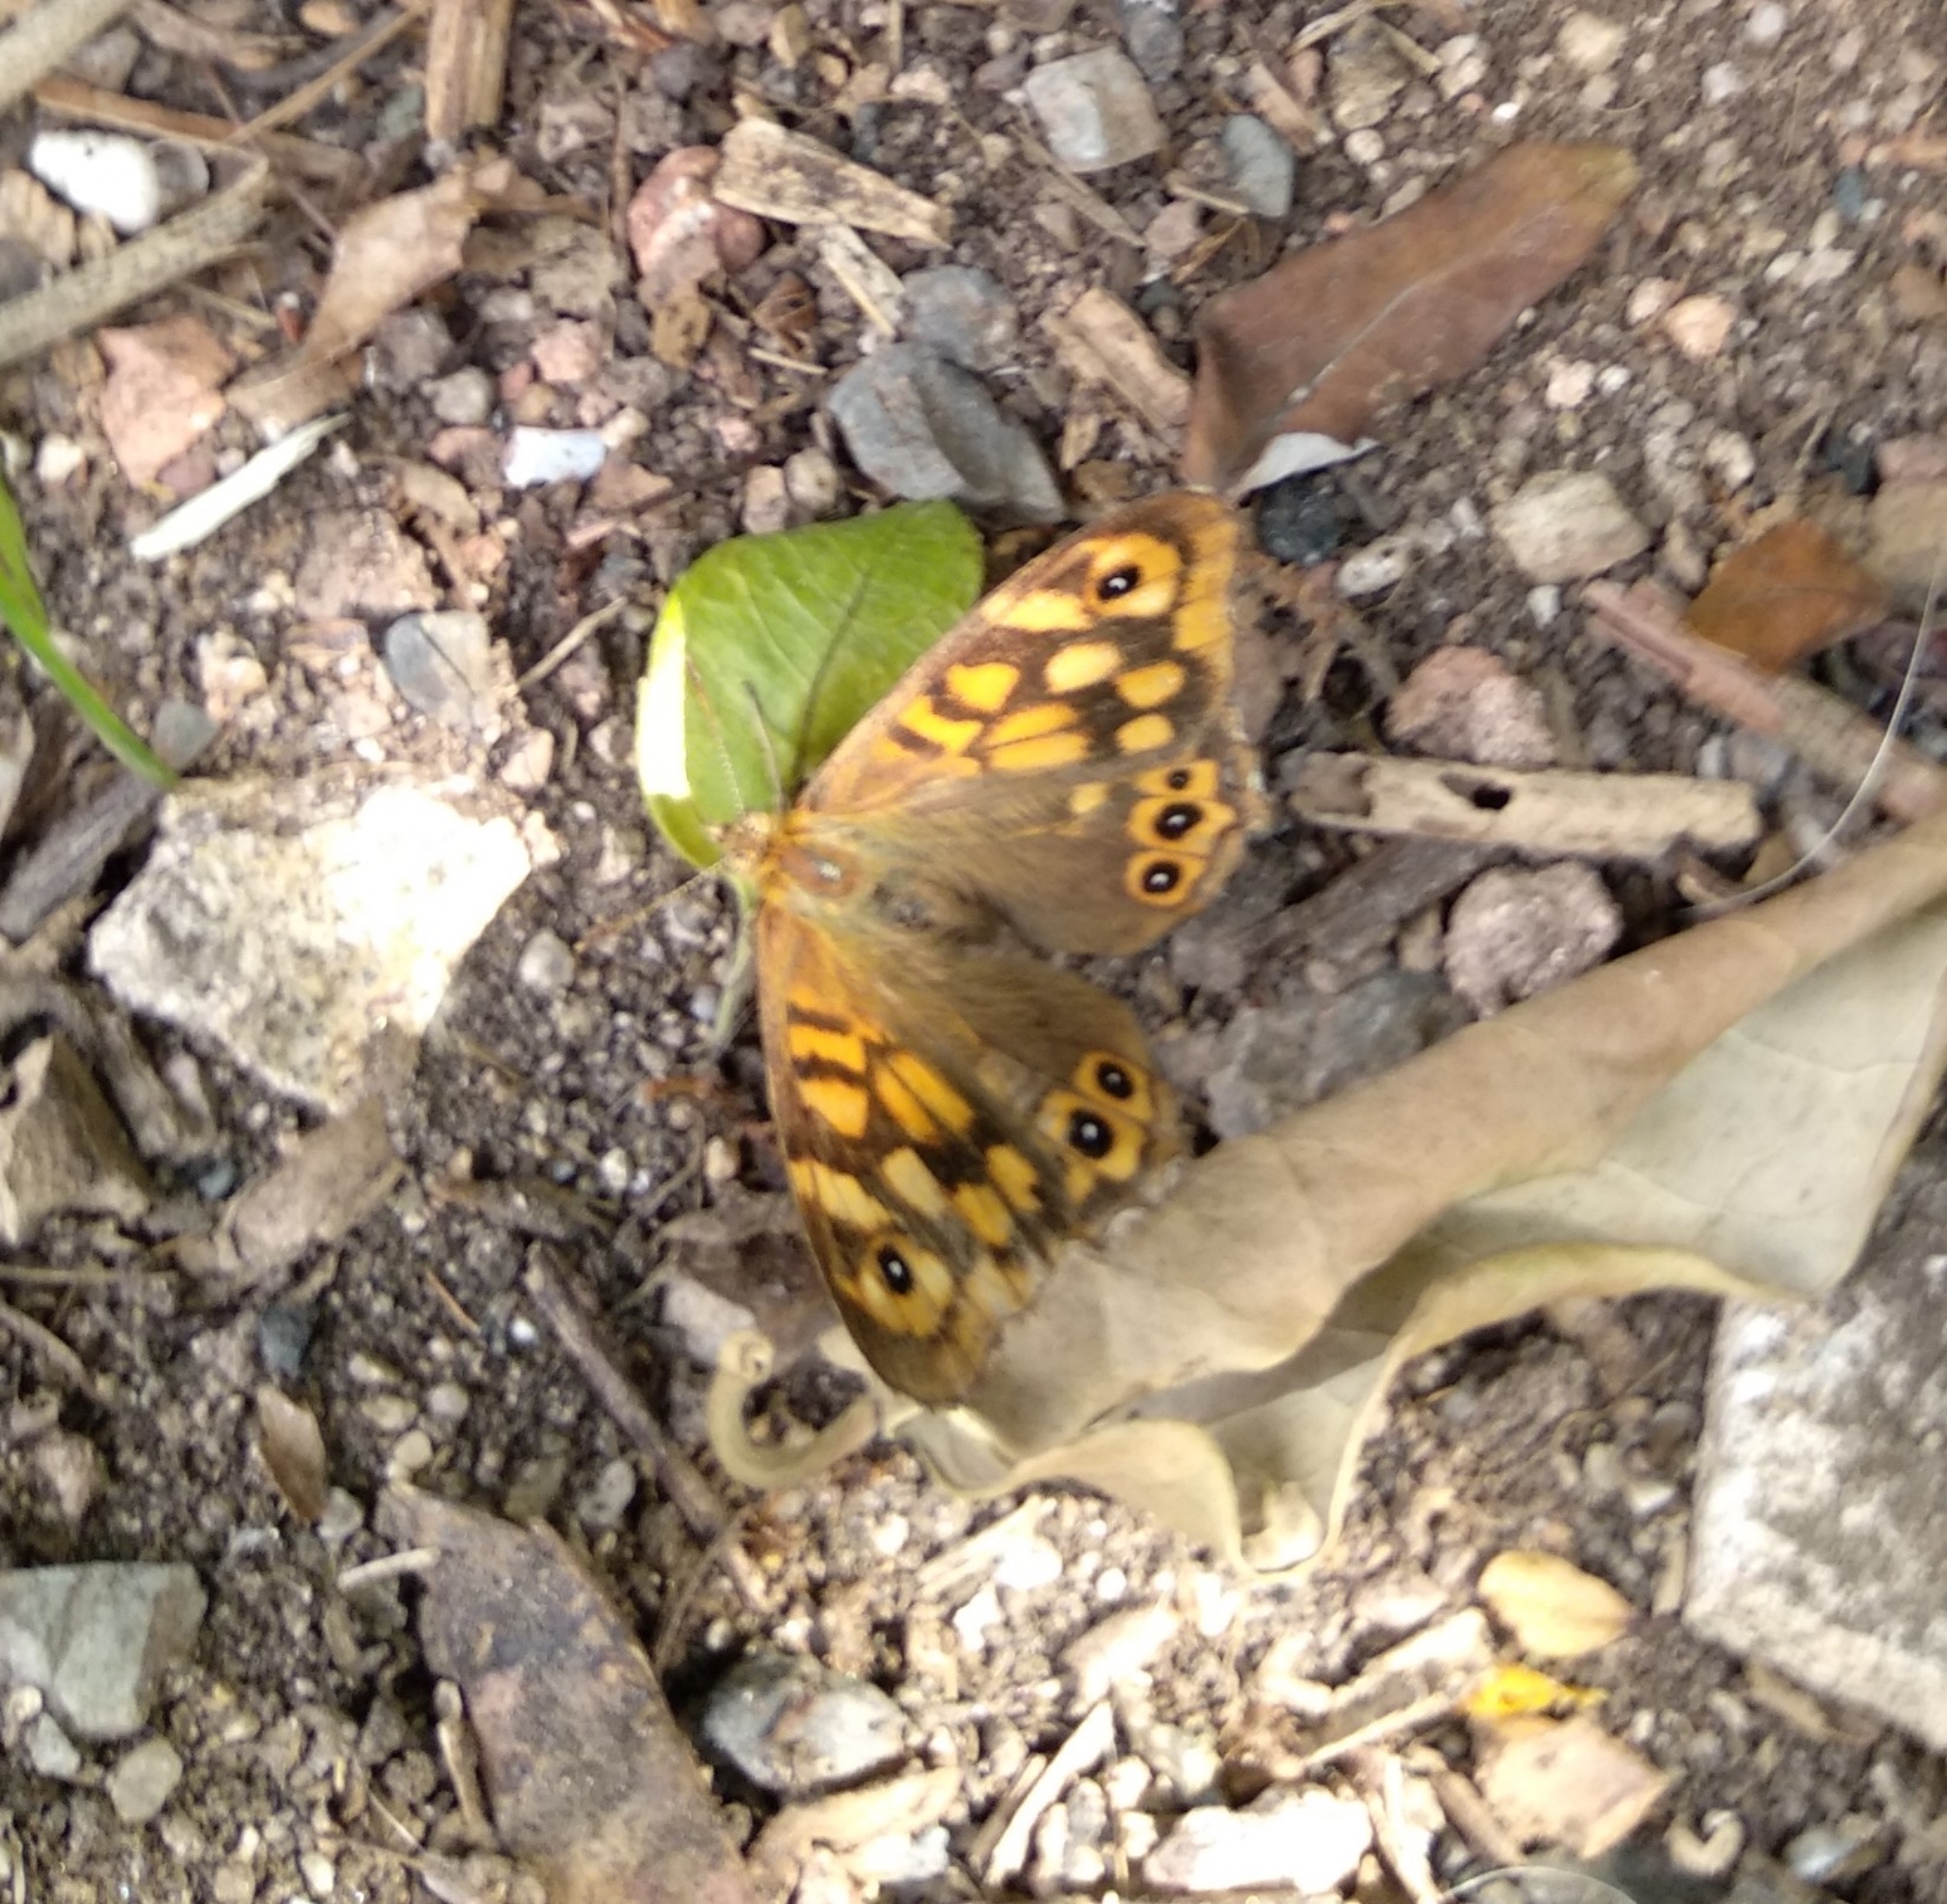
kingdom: Animalia
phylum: Arthropoda
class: Insecta
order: Lepidoptera
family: Nymphalidae
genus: Pararge
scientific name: Pararge aegeria
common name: Speckled wood
